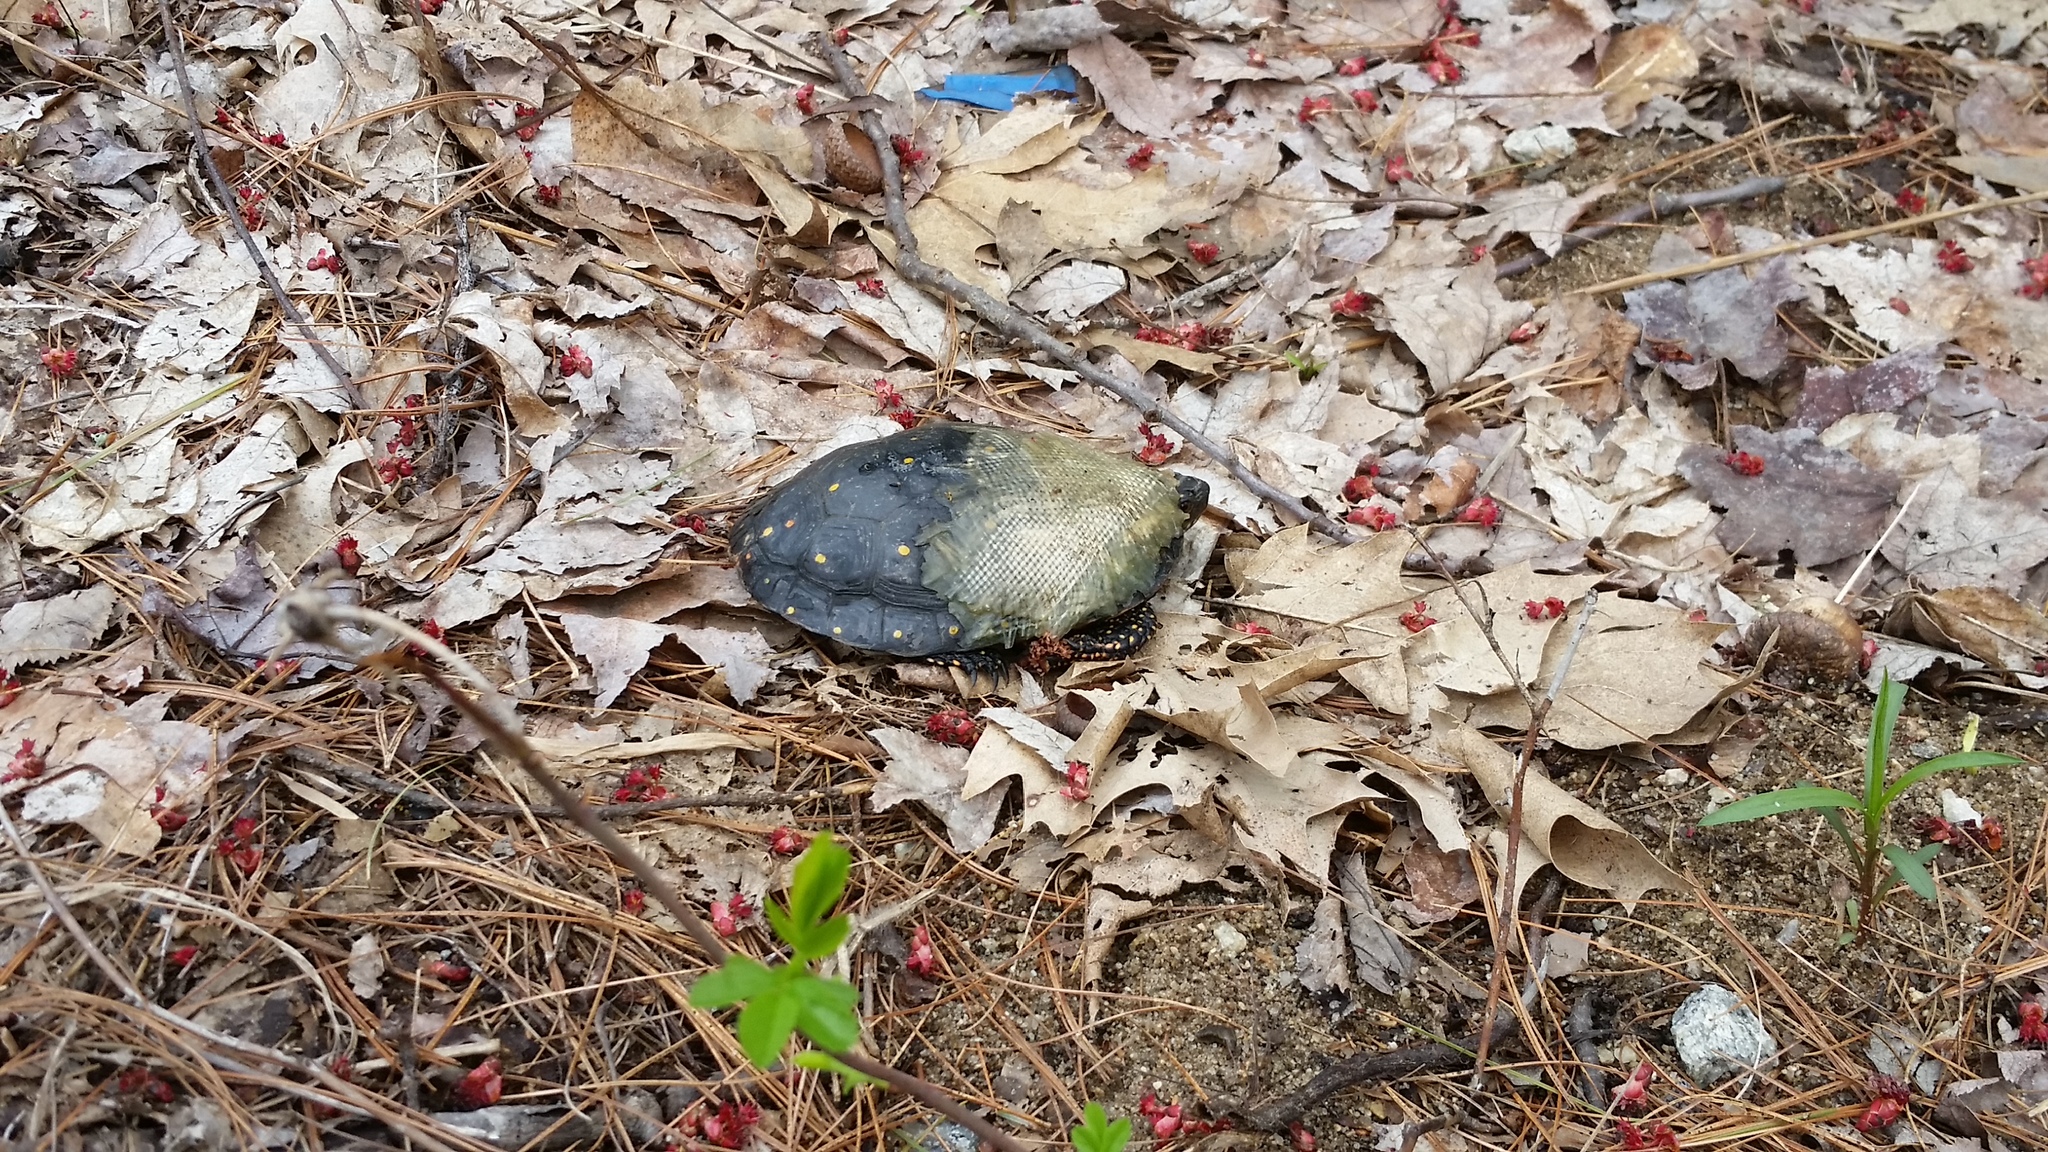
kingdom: Animalia
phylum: Chordata
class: Testudines
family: Emydidae
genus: Clemmys
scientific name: Clemmys guttata
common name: Spotted turtle
